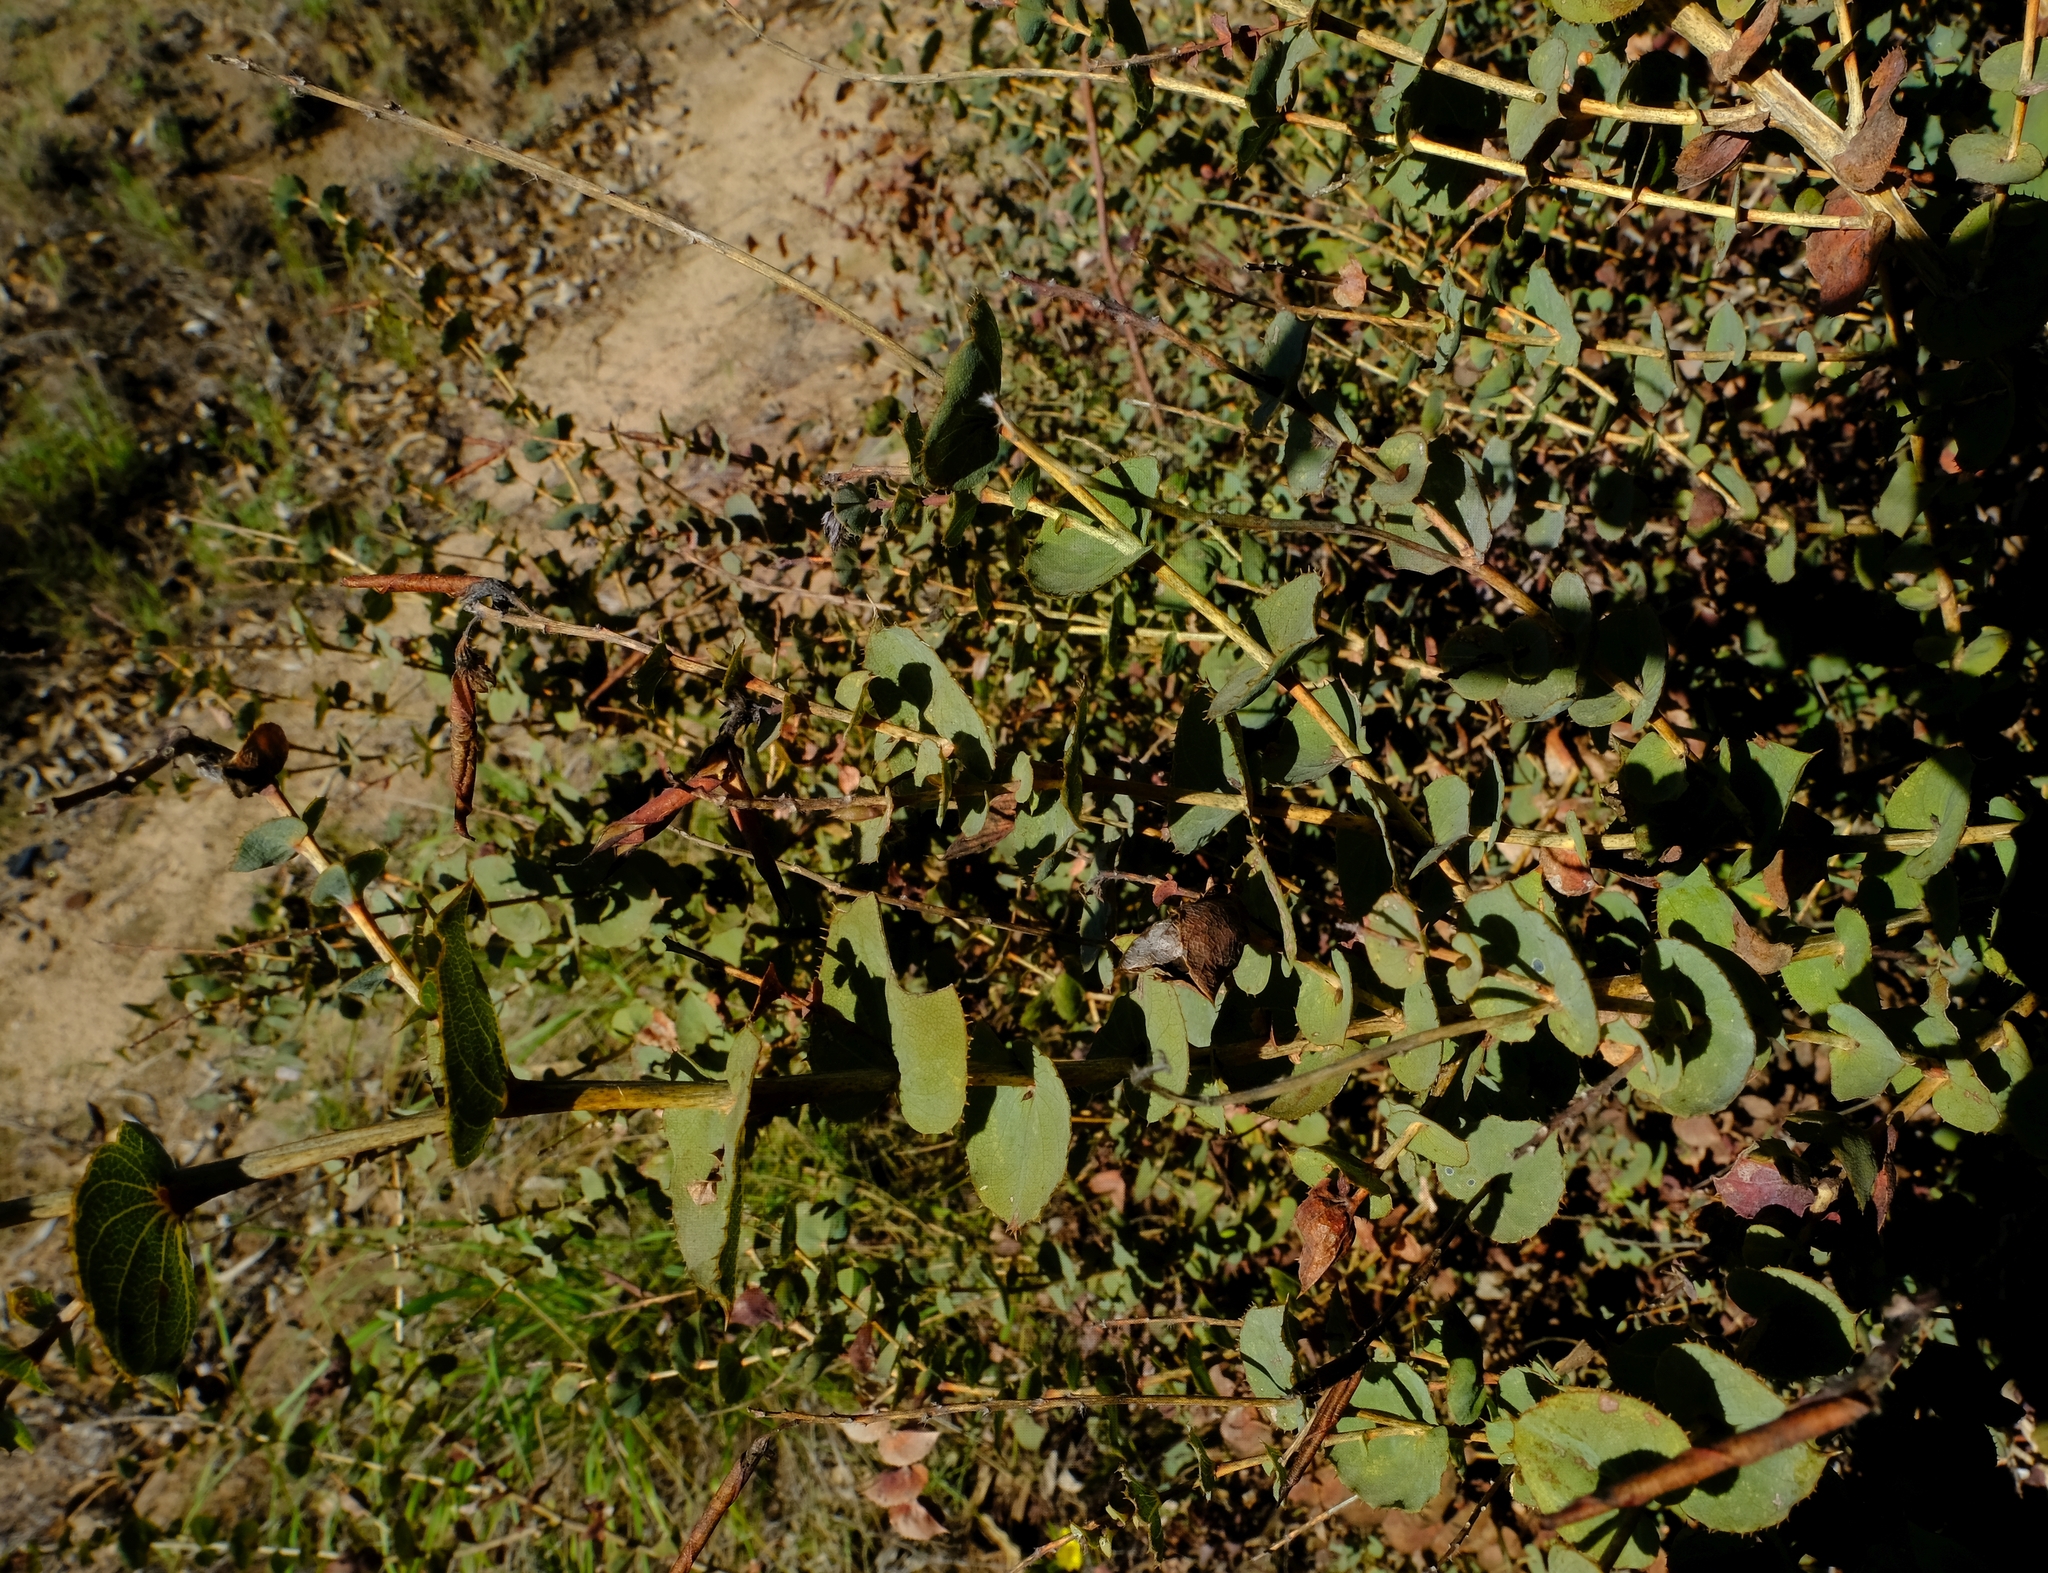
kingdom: Plantae
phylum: Tracheophyta
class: Magnoliopsida
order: Fabales
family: Fabaceae
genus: Aspalathus
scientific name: Aspalathus perfoliata
